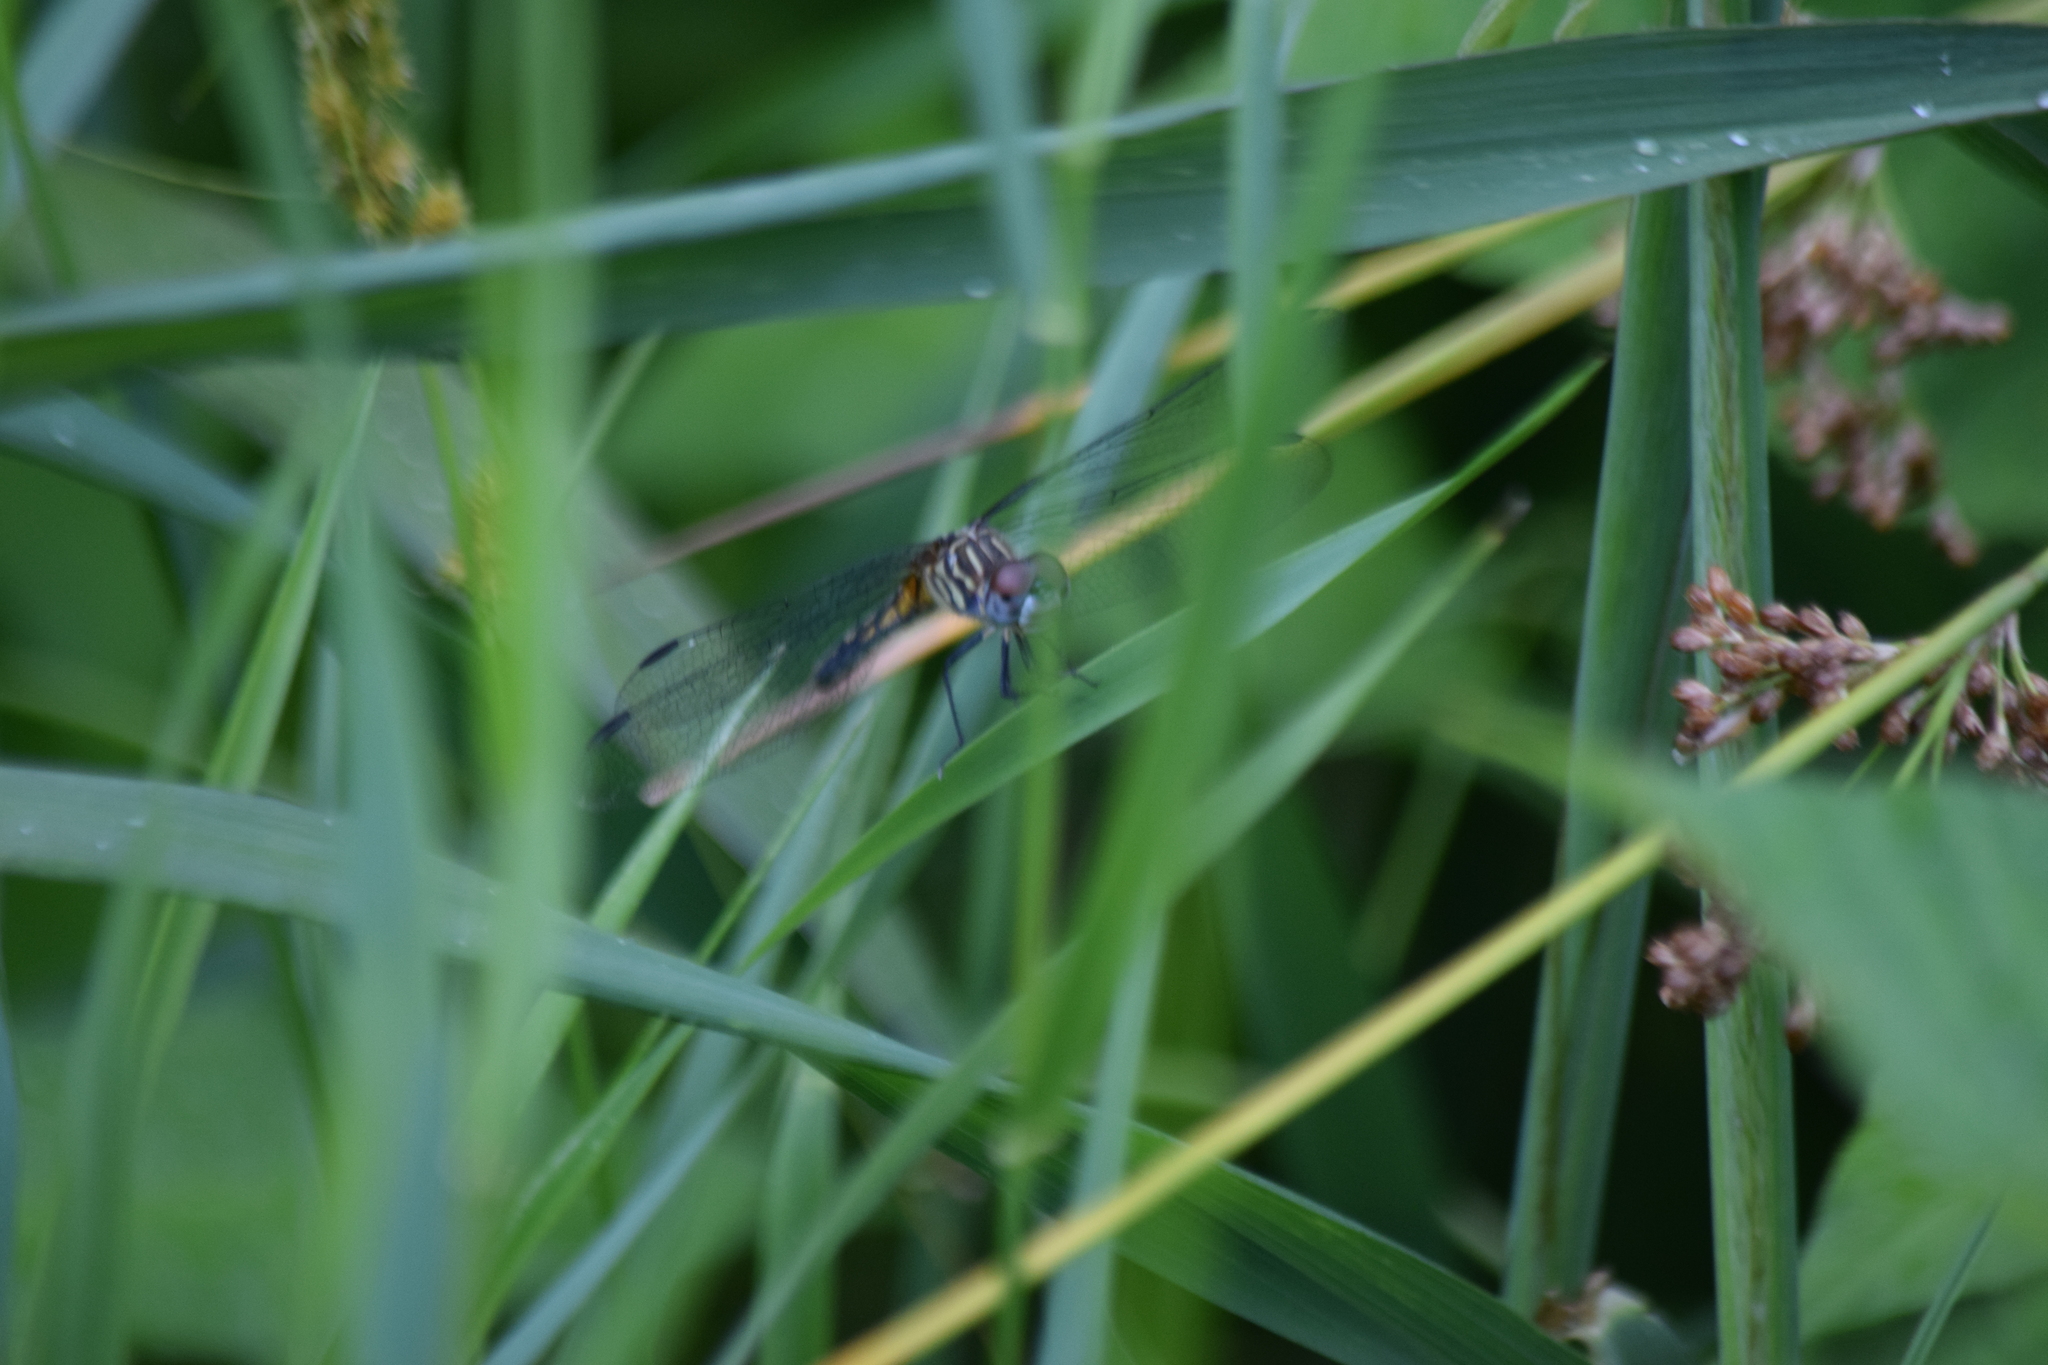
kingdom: Animalia
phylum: Arthropoda
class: Insecta
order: Odonata
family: Libellulidae
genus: Pachydiplax
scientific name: Pachydiplax longipennis
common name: Blue dasher
